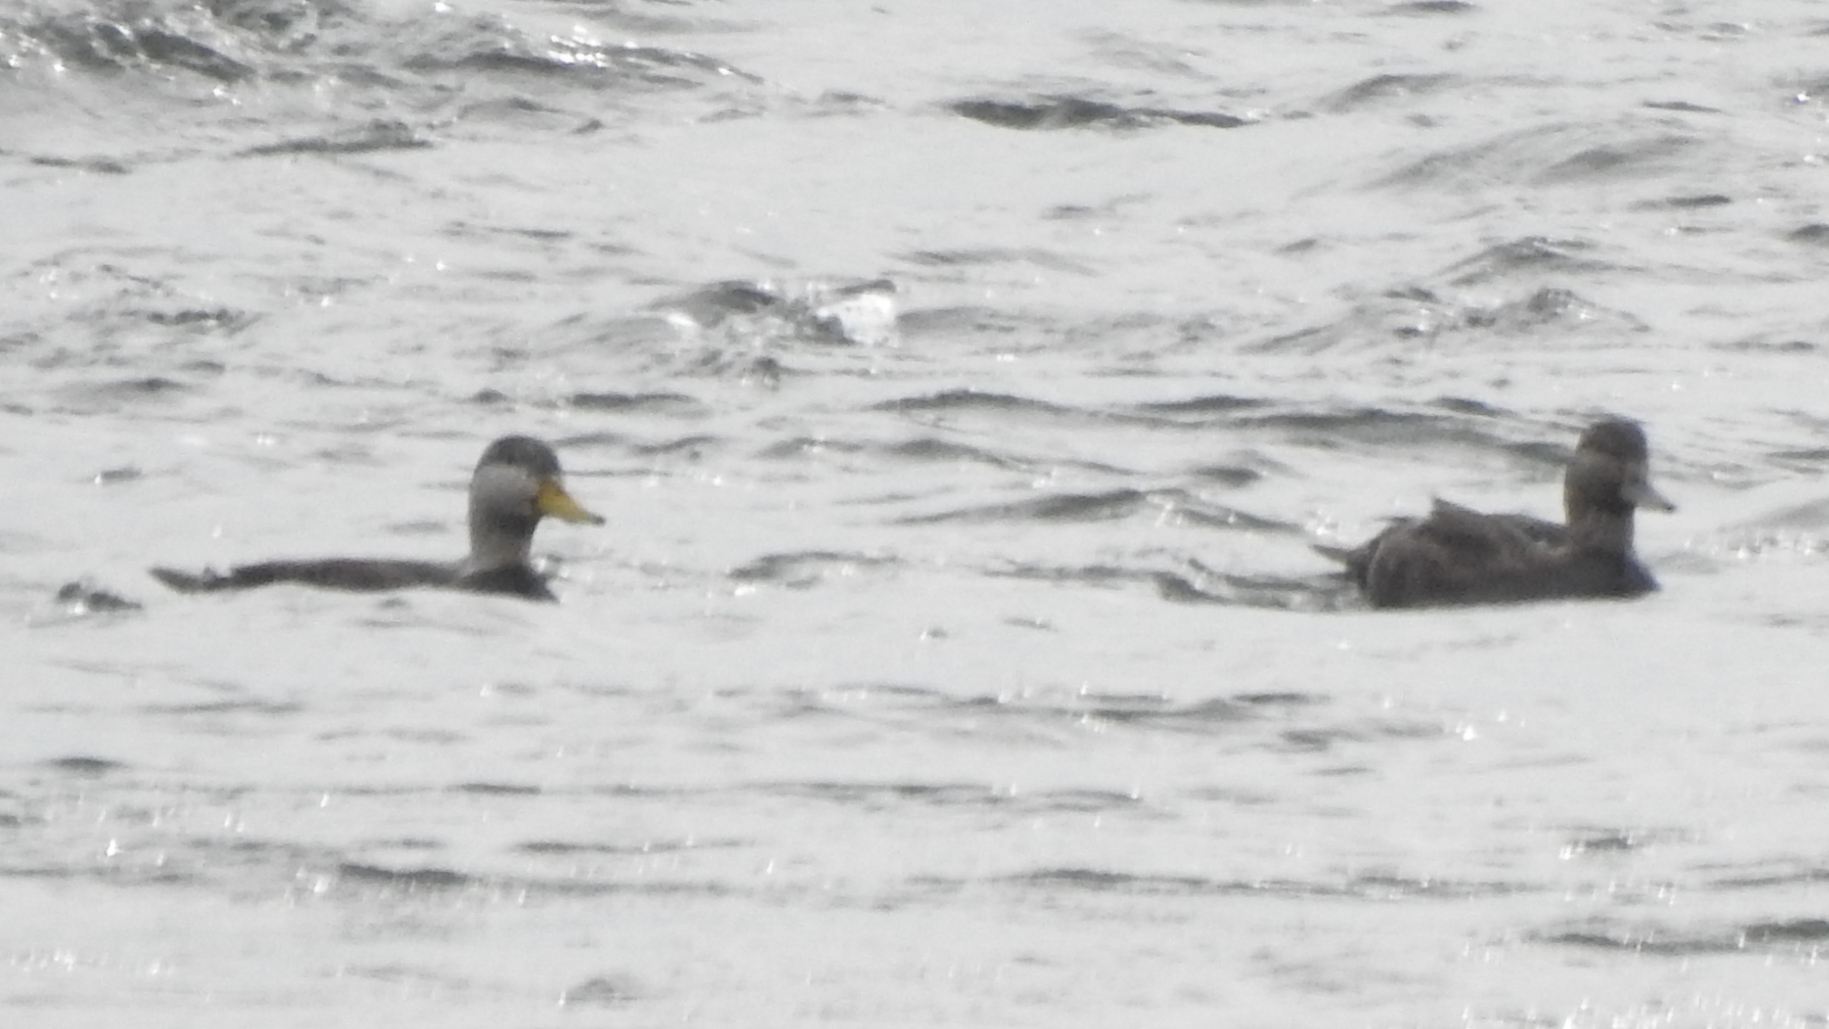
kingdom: Animalia
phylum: Chordata
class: Aves
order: Anseriformes
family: Anatidae
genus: Anas
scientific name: Anas rubripes
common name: American black duck
